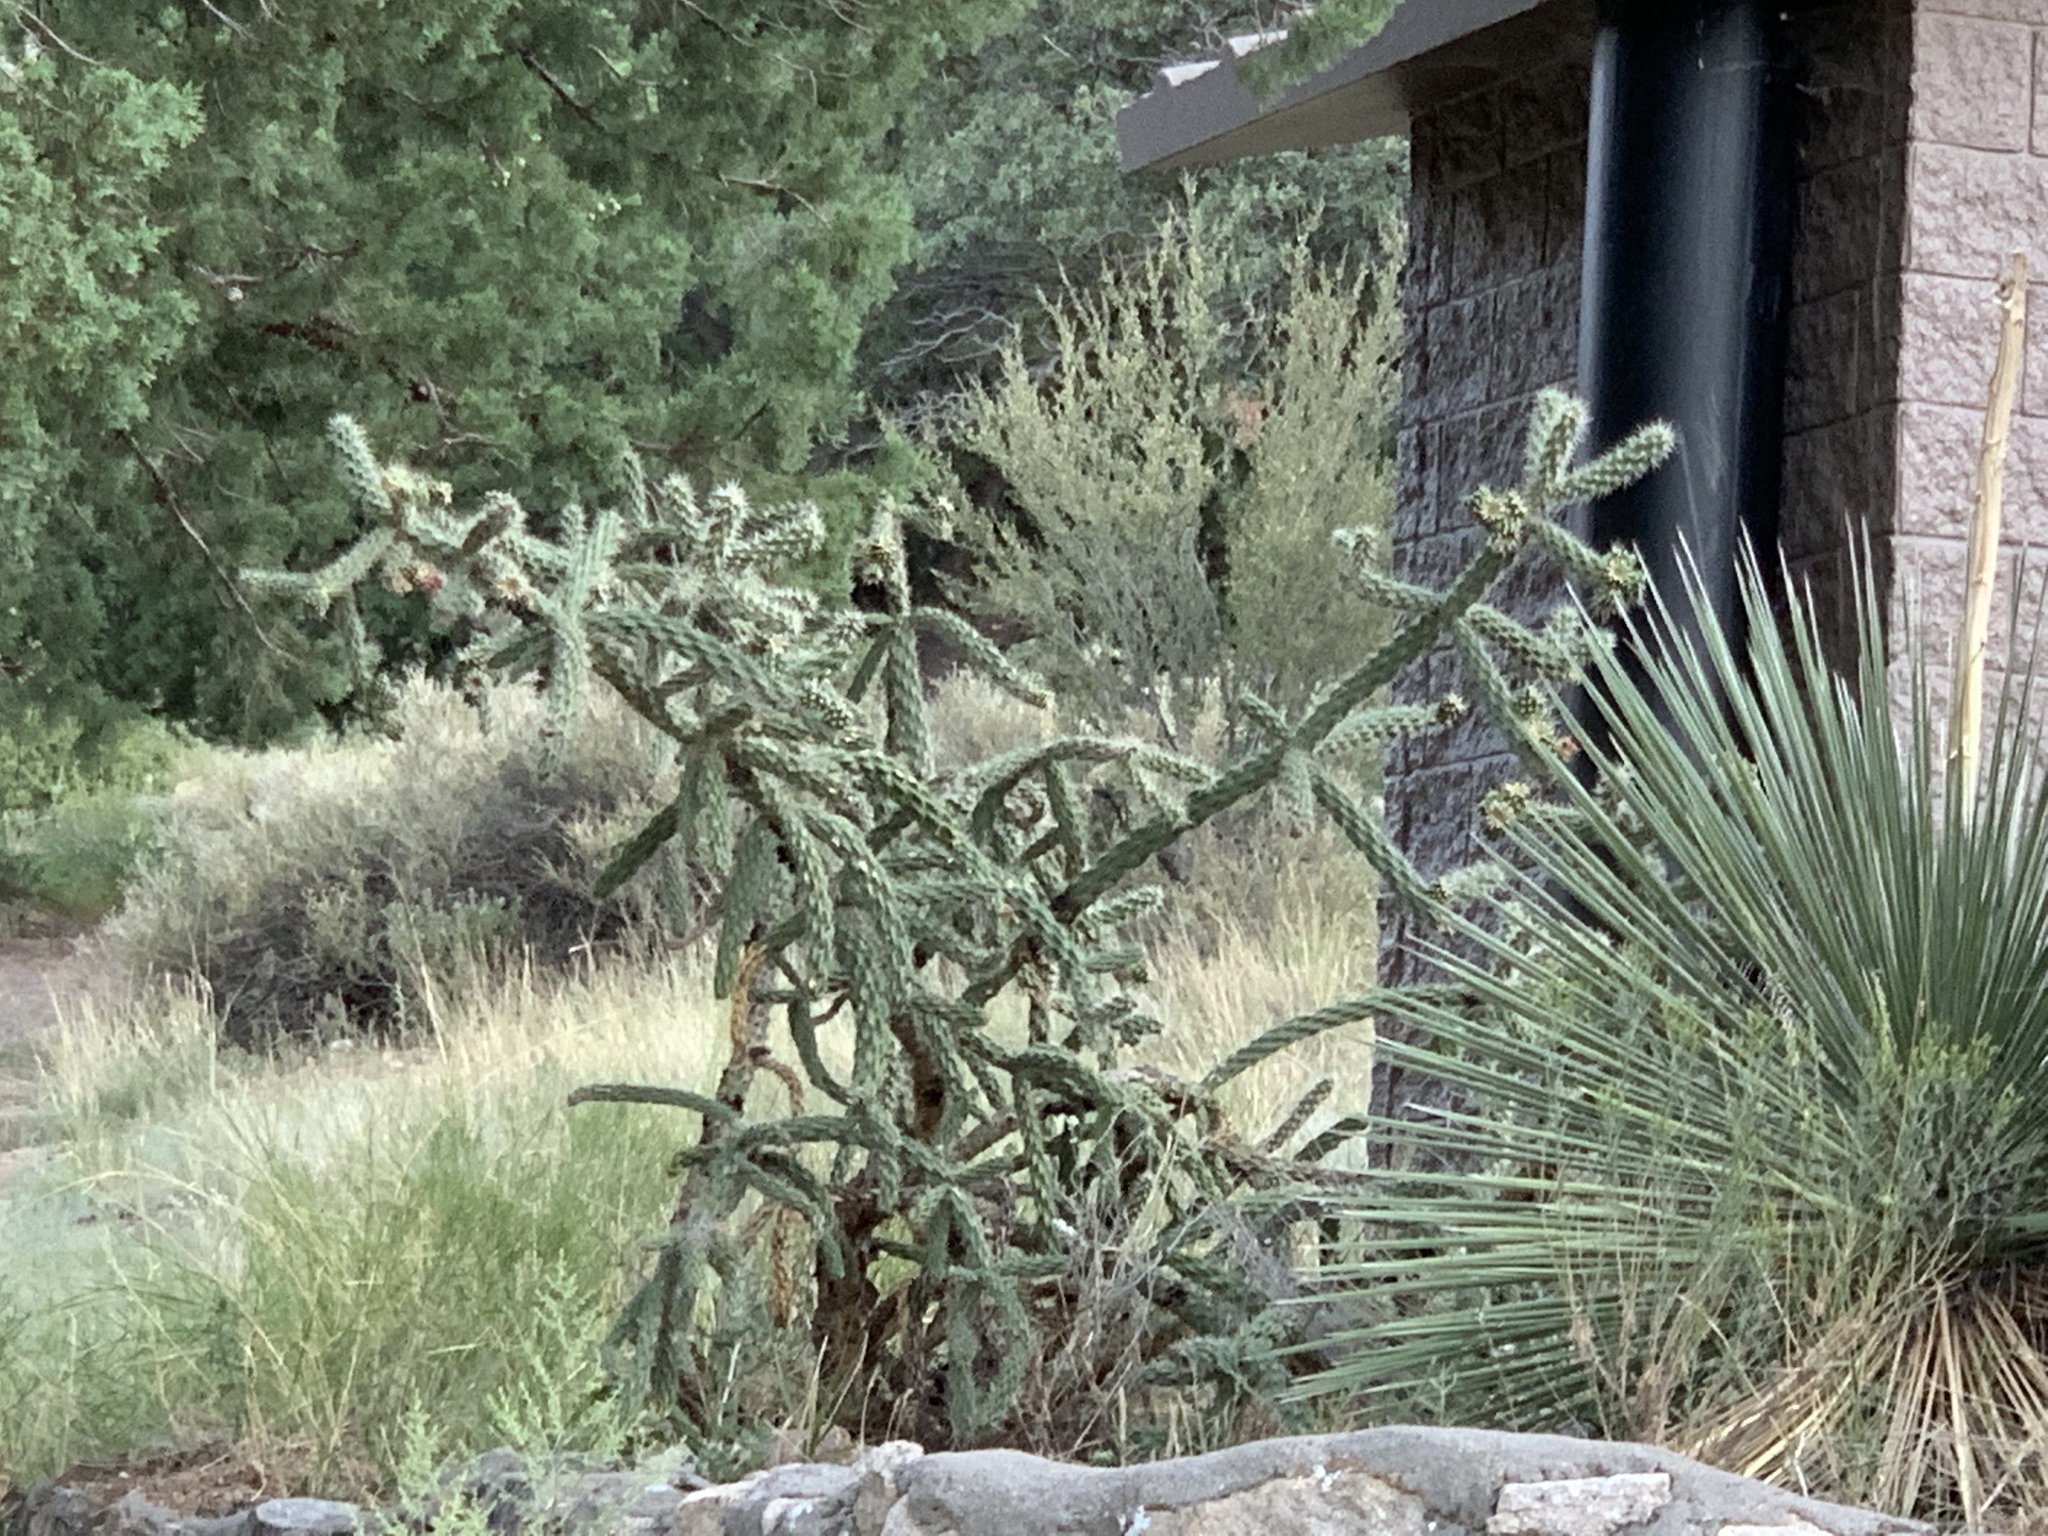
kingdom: Plantae
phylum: Tracheophyta
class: Magnoliopsida
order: Caryophyllales
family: Cactaceae
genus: Cylindropuntia
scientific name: Cylindropuntia imbricata
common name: Candelabrum cactus
